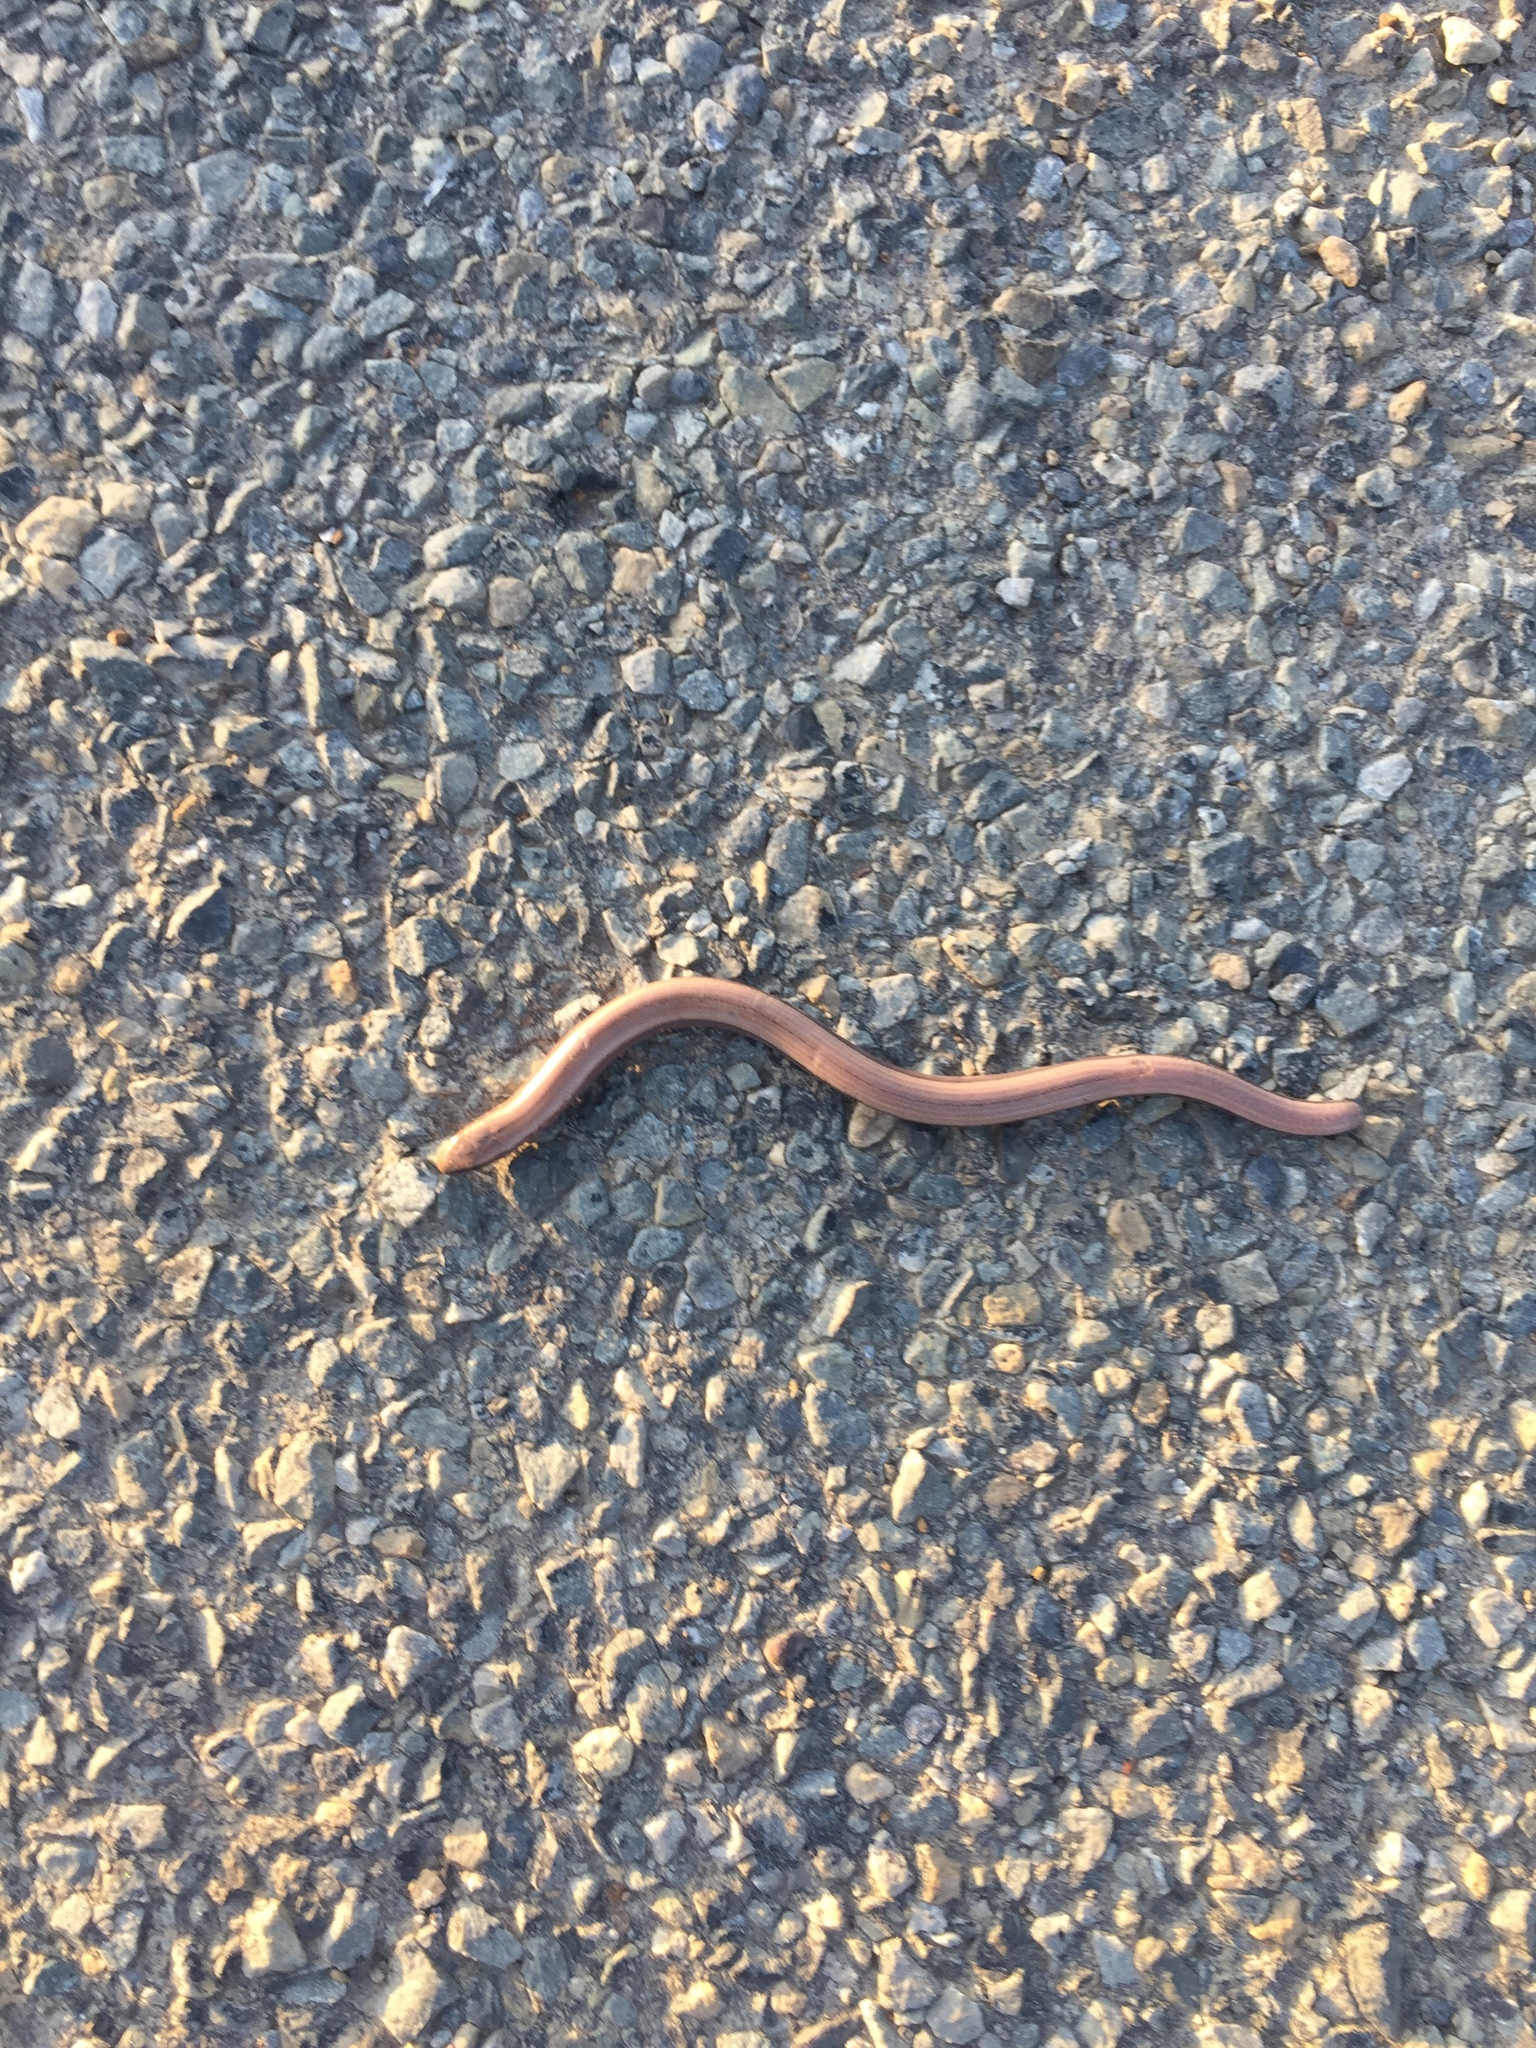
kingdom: Animalia
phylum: Chordata
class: Squamata
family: Anguidae
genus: Anguis
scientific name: Anguis fragilis
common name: Slow worm
